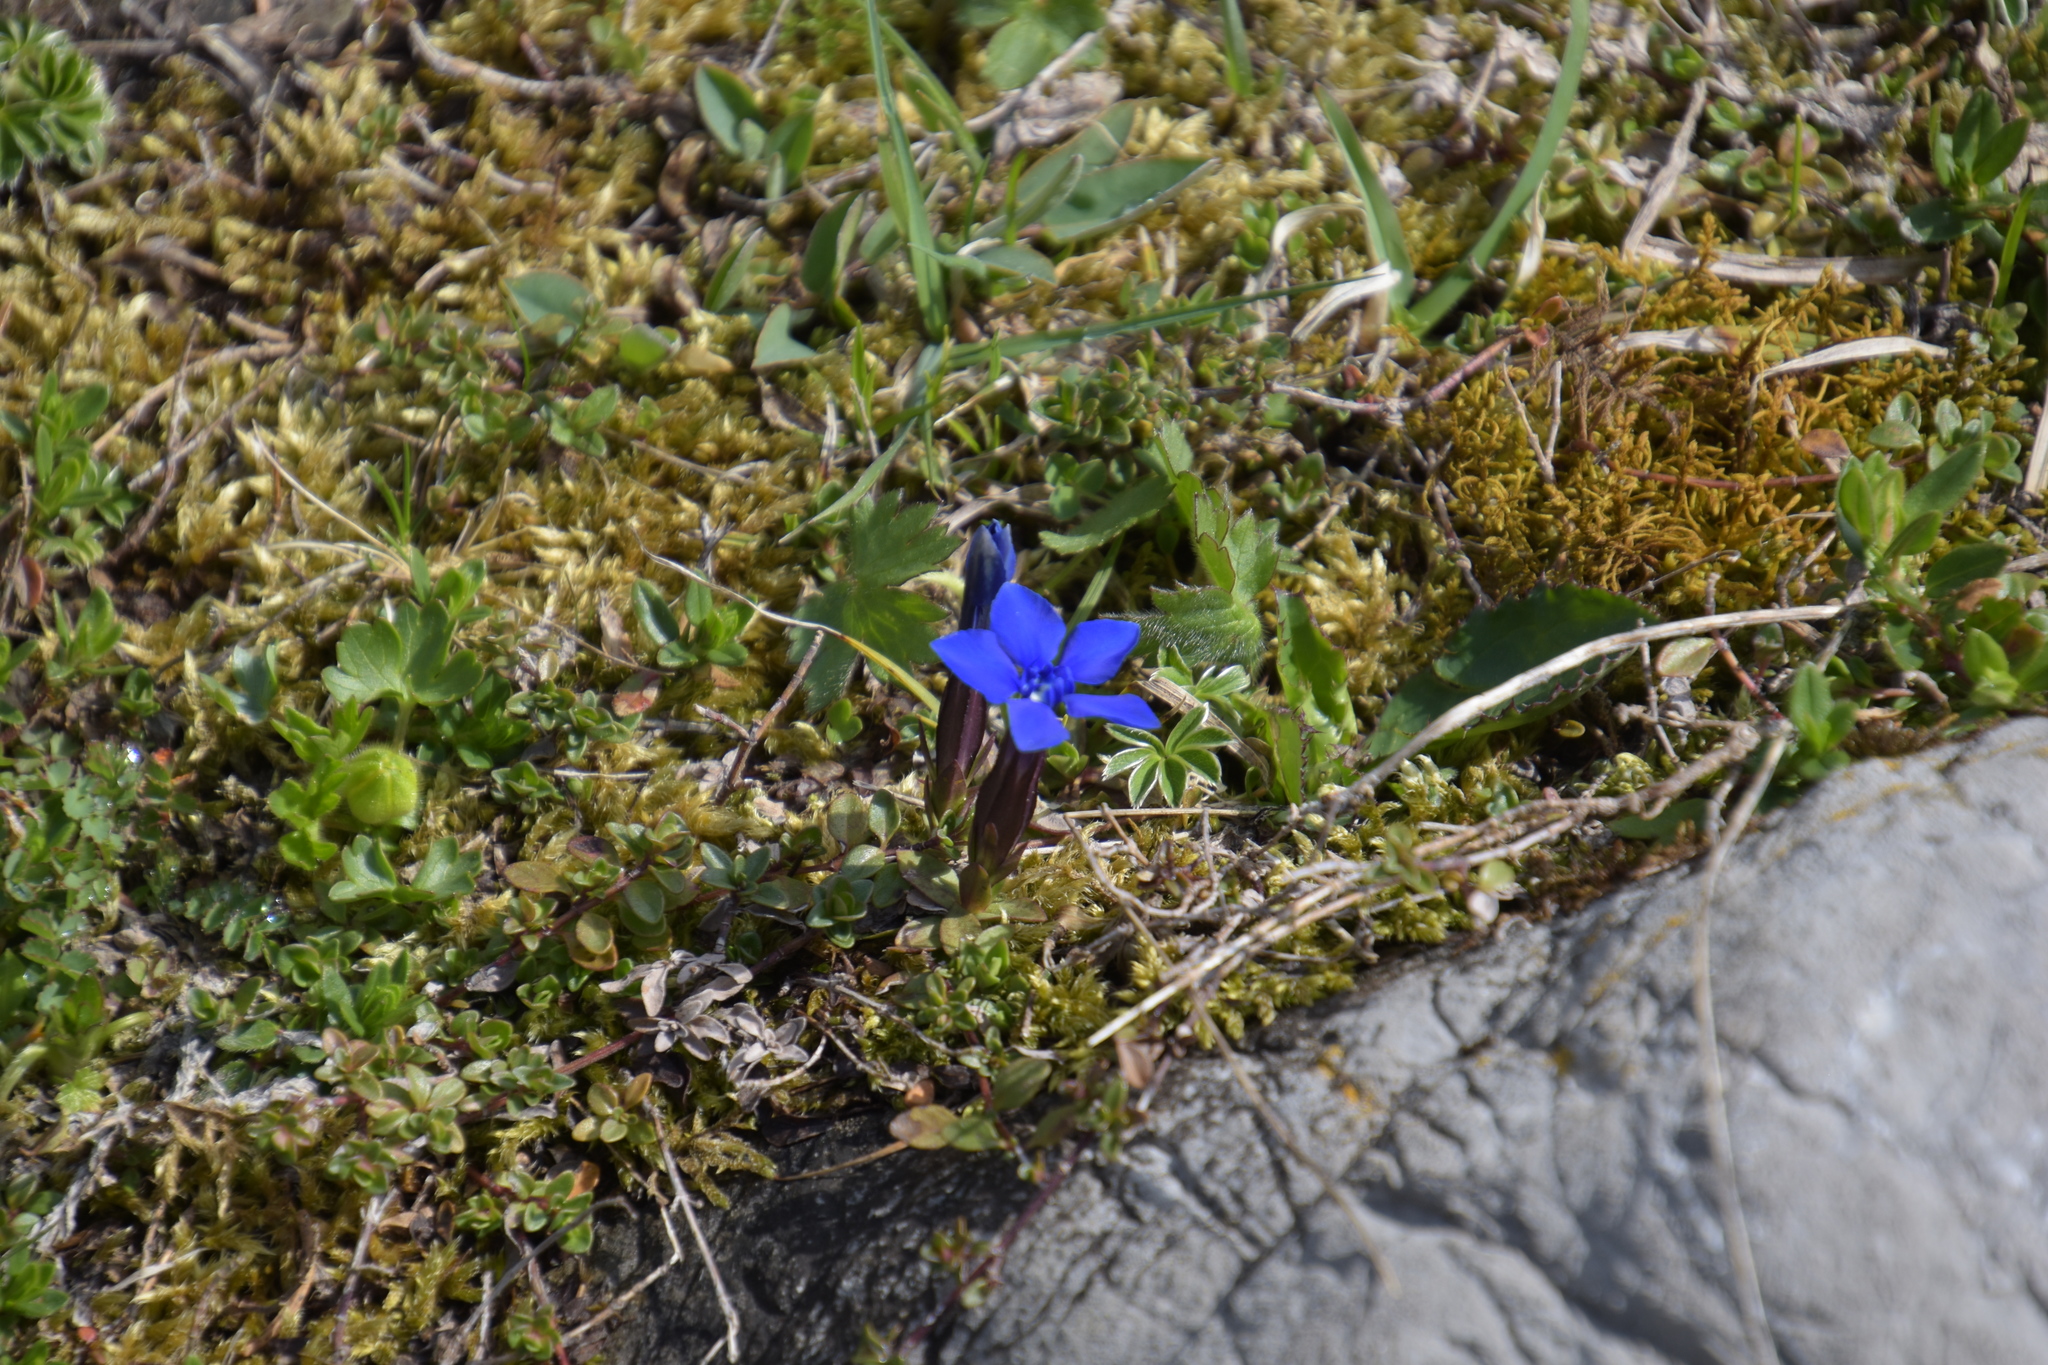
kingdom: Plantae
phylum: Tracheophyta
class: Magnoliopsida
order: Gentianales
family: Gentianaceae
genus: Gentiana
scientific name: Gentiana verna
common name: Spring gentian
